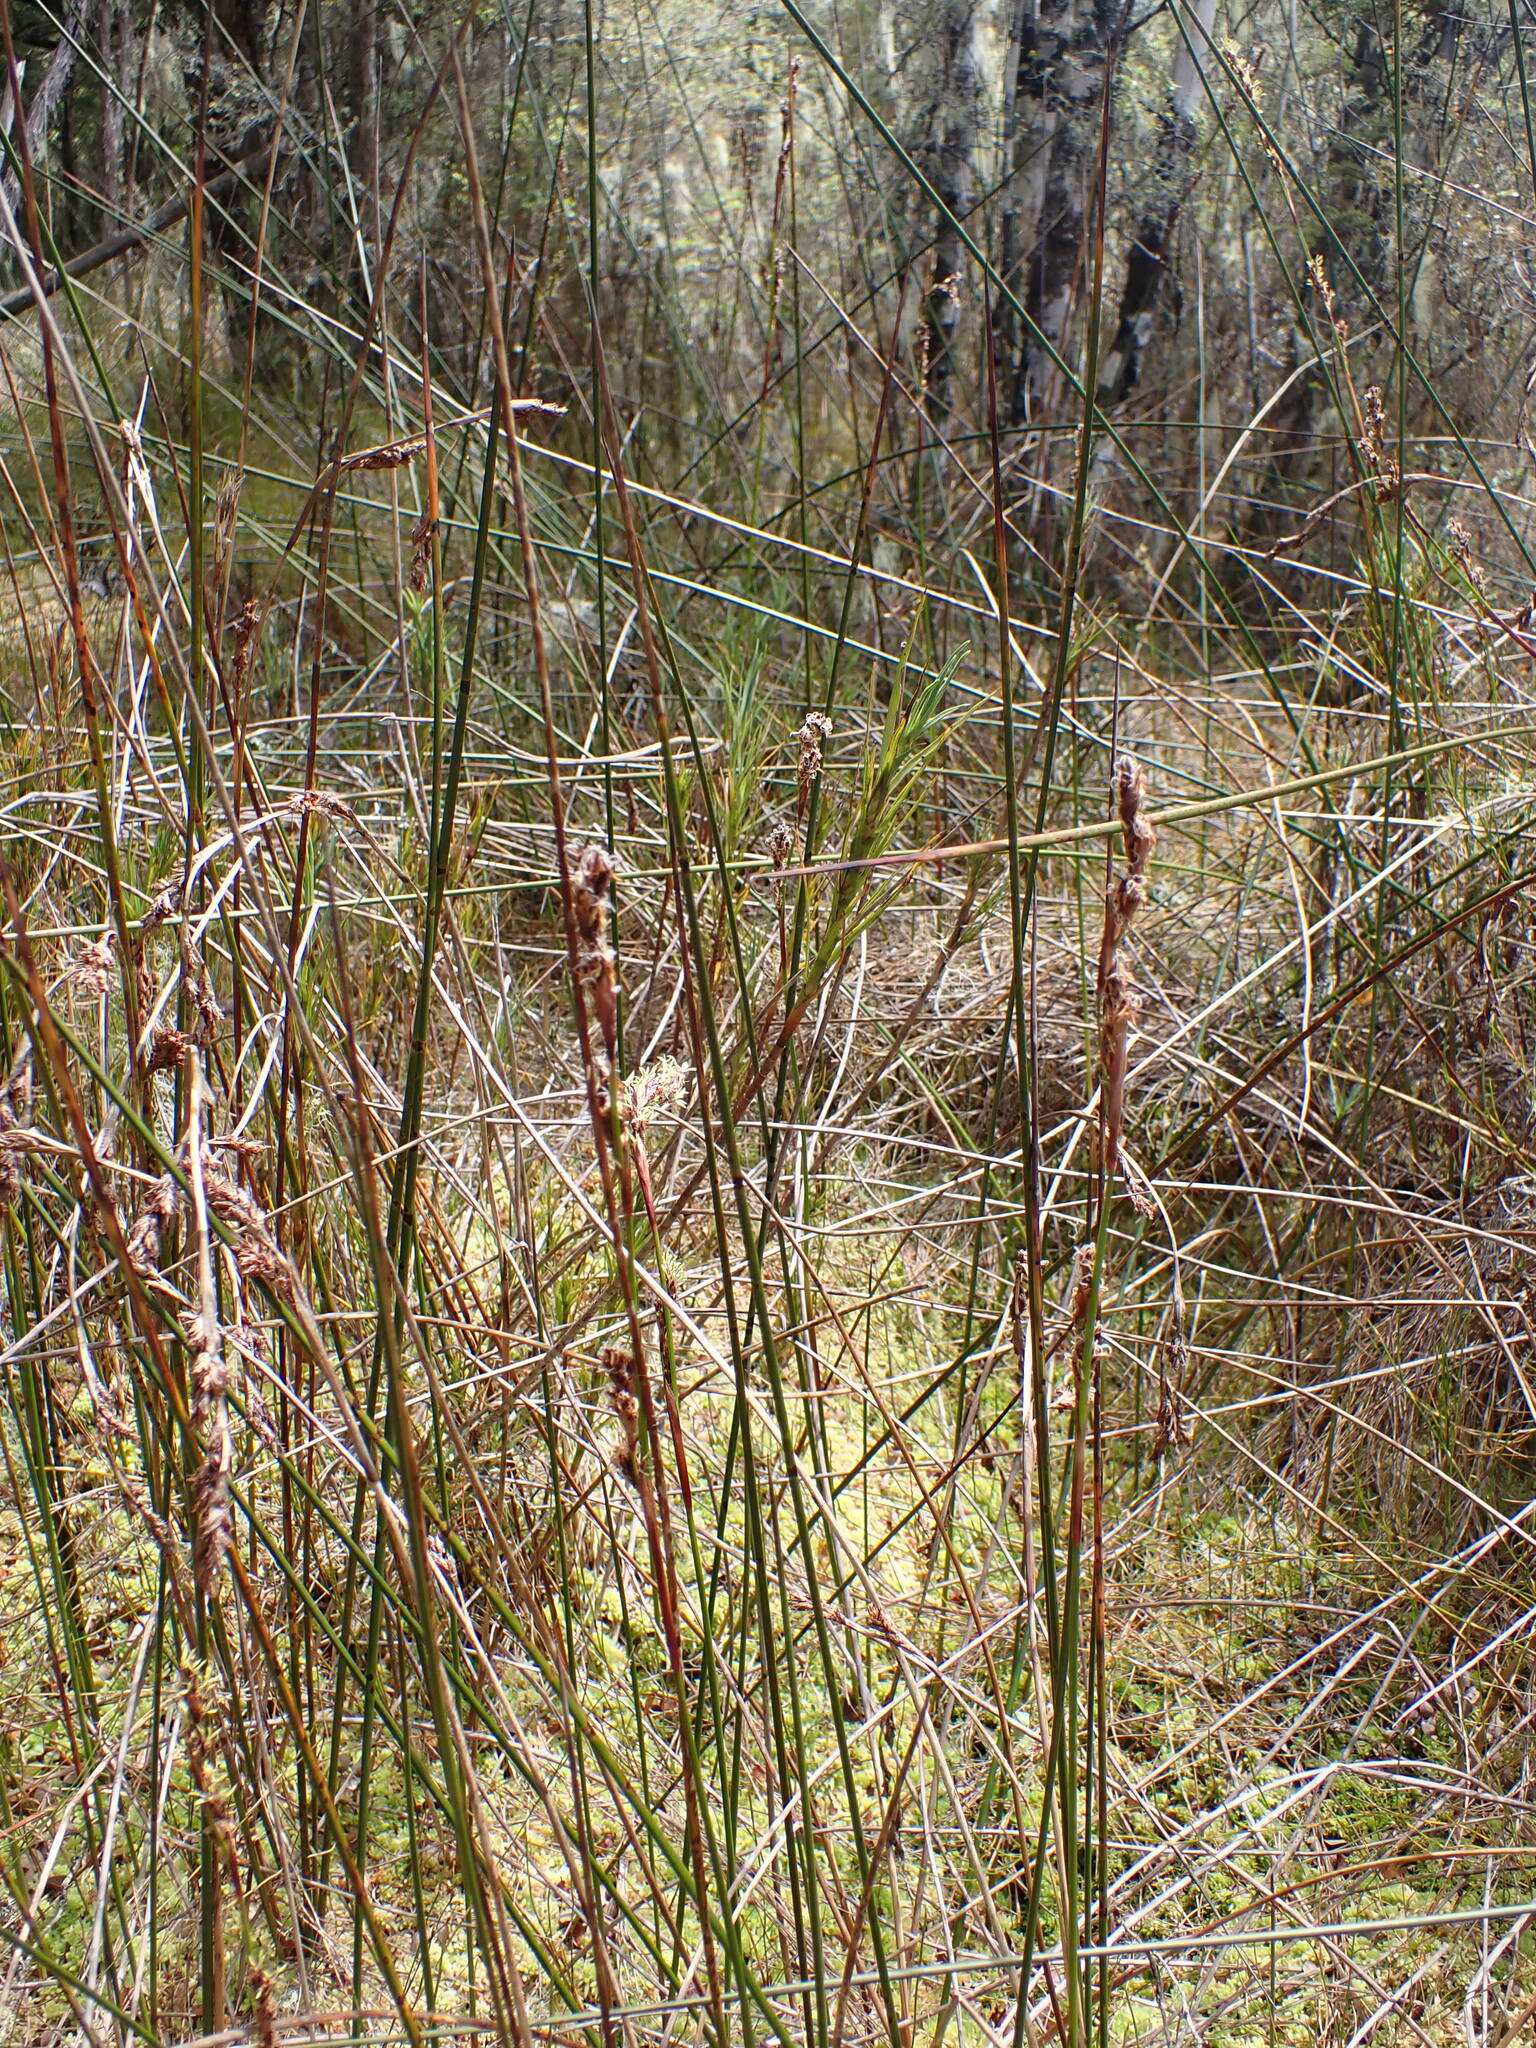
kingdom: Plantae
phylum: Tracheophyta
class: Liliopsida
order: Poales
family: Cyperaceae
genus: Machaerina
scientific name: Machaerina rubiginosa
